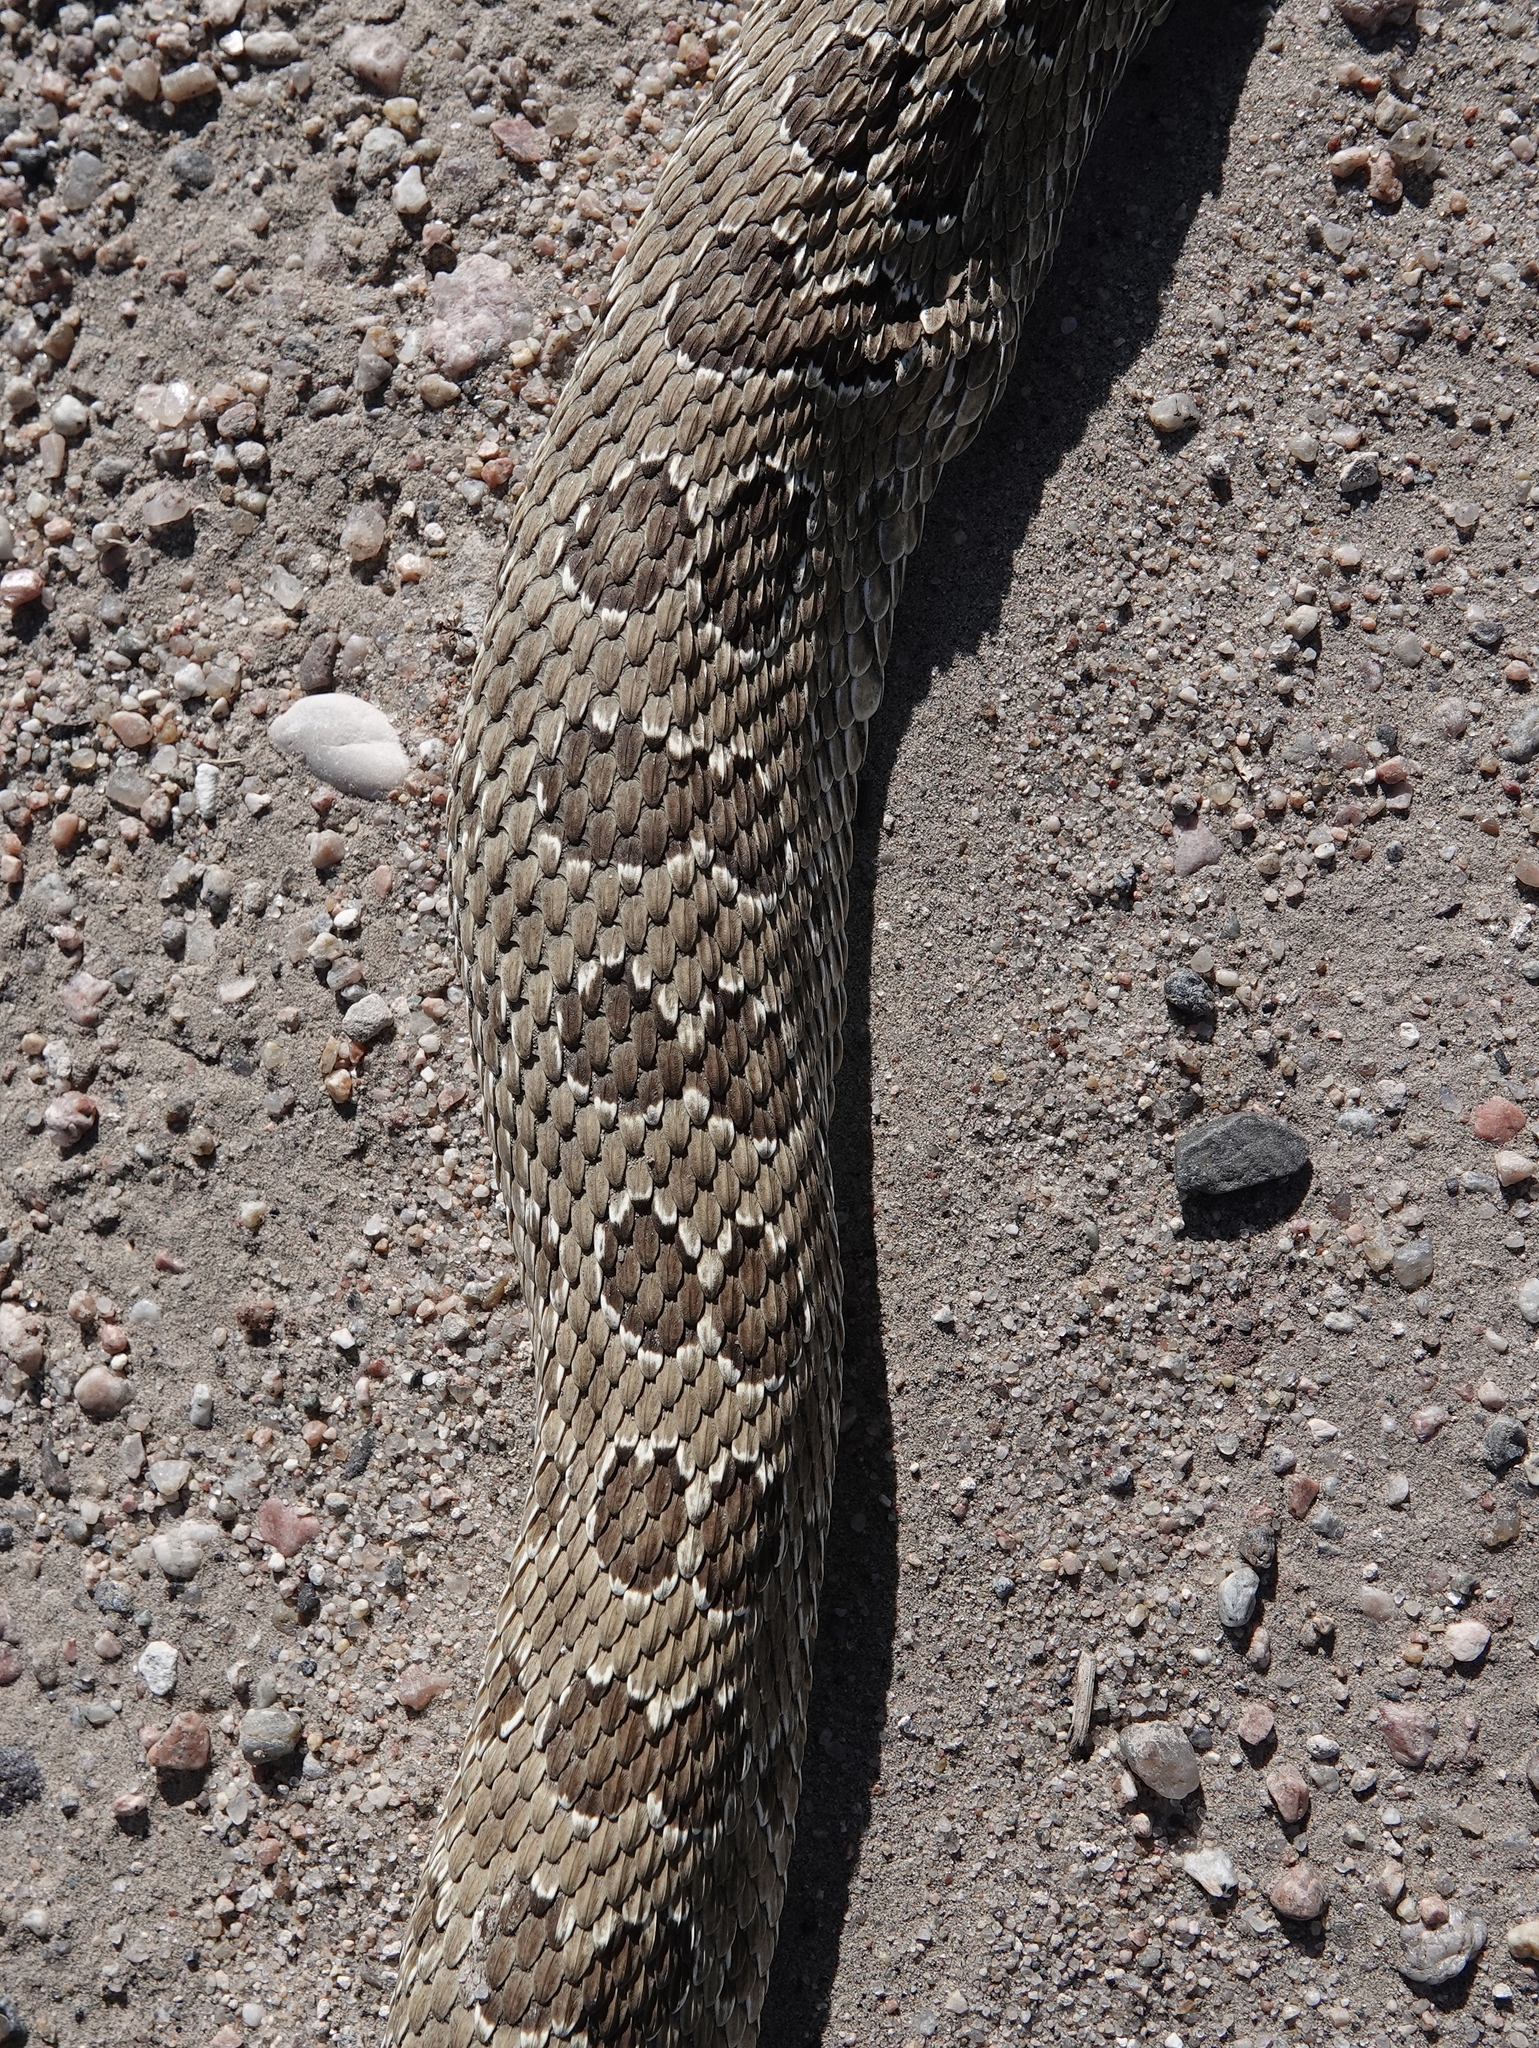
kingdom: Animalia
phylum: Chordata
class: Squamata
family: Viperidae
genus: Crotalus
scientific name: Crotalus viridis
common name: Prairie rattlesnake
